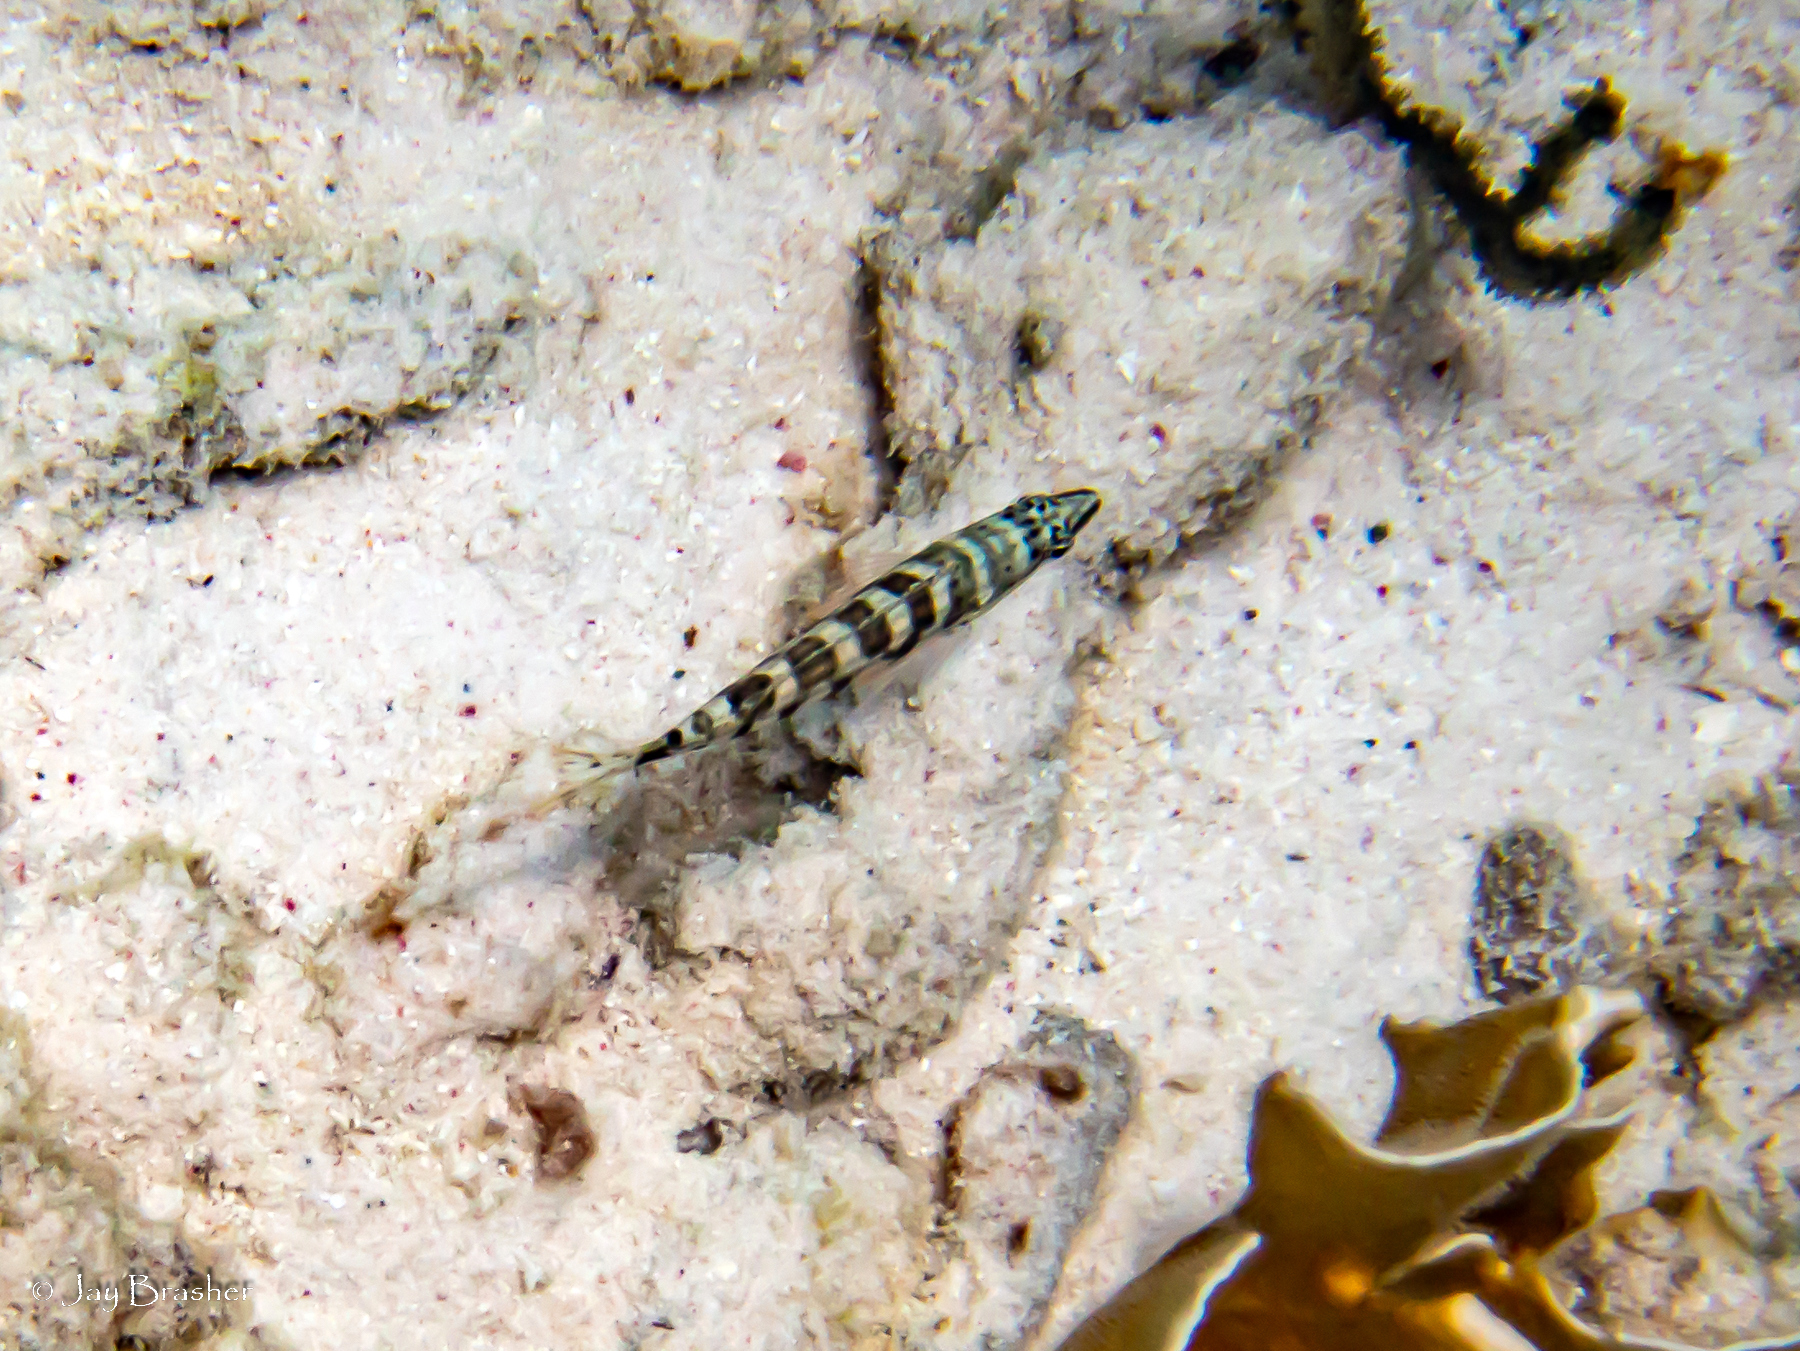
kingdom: Animalia
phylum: Chordata
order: Perciformes
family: Serranidae
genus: Serranus
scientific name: Serranus tigrinus
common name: Harlequin bass
